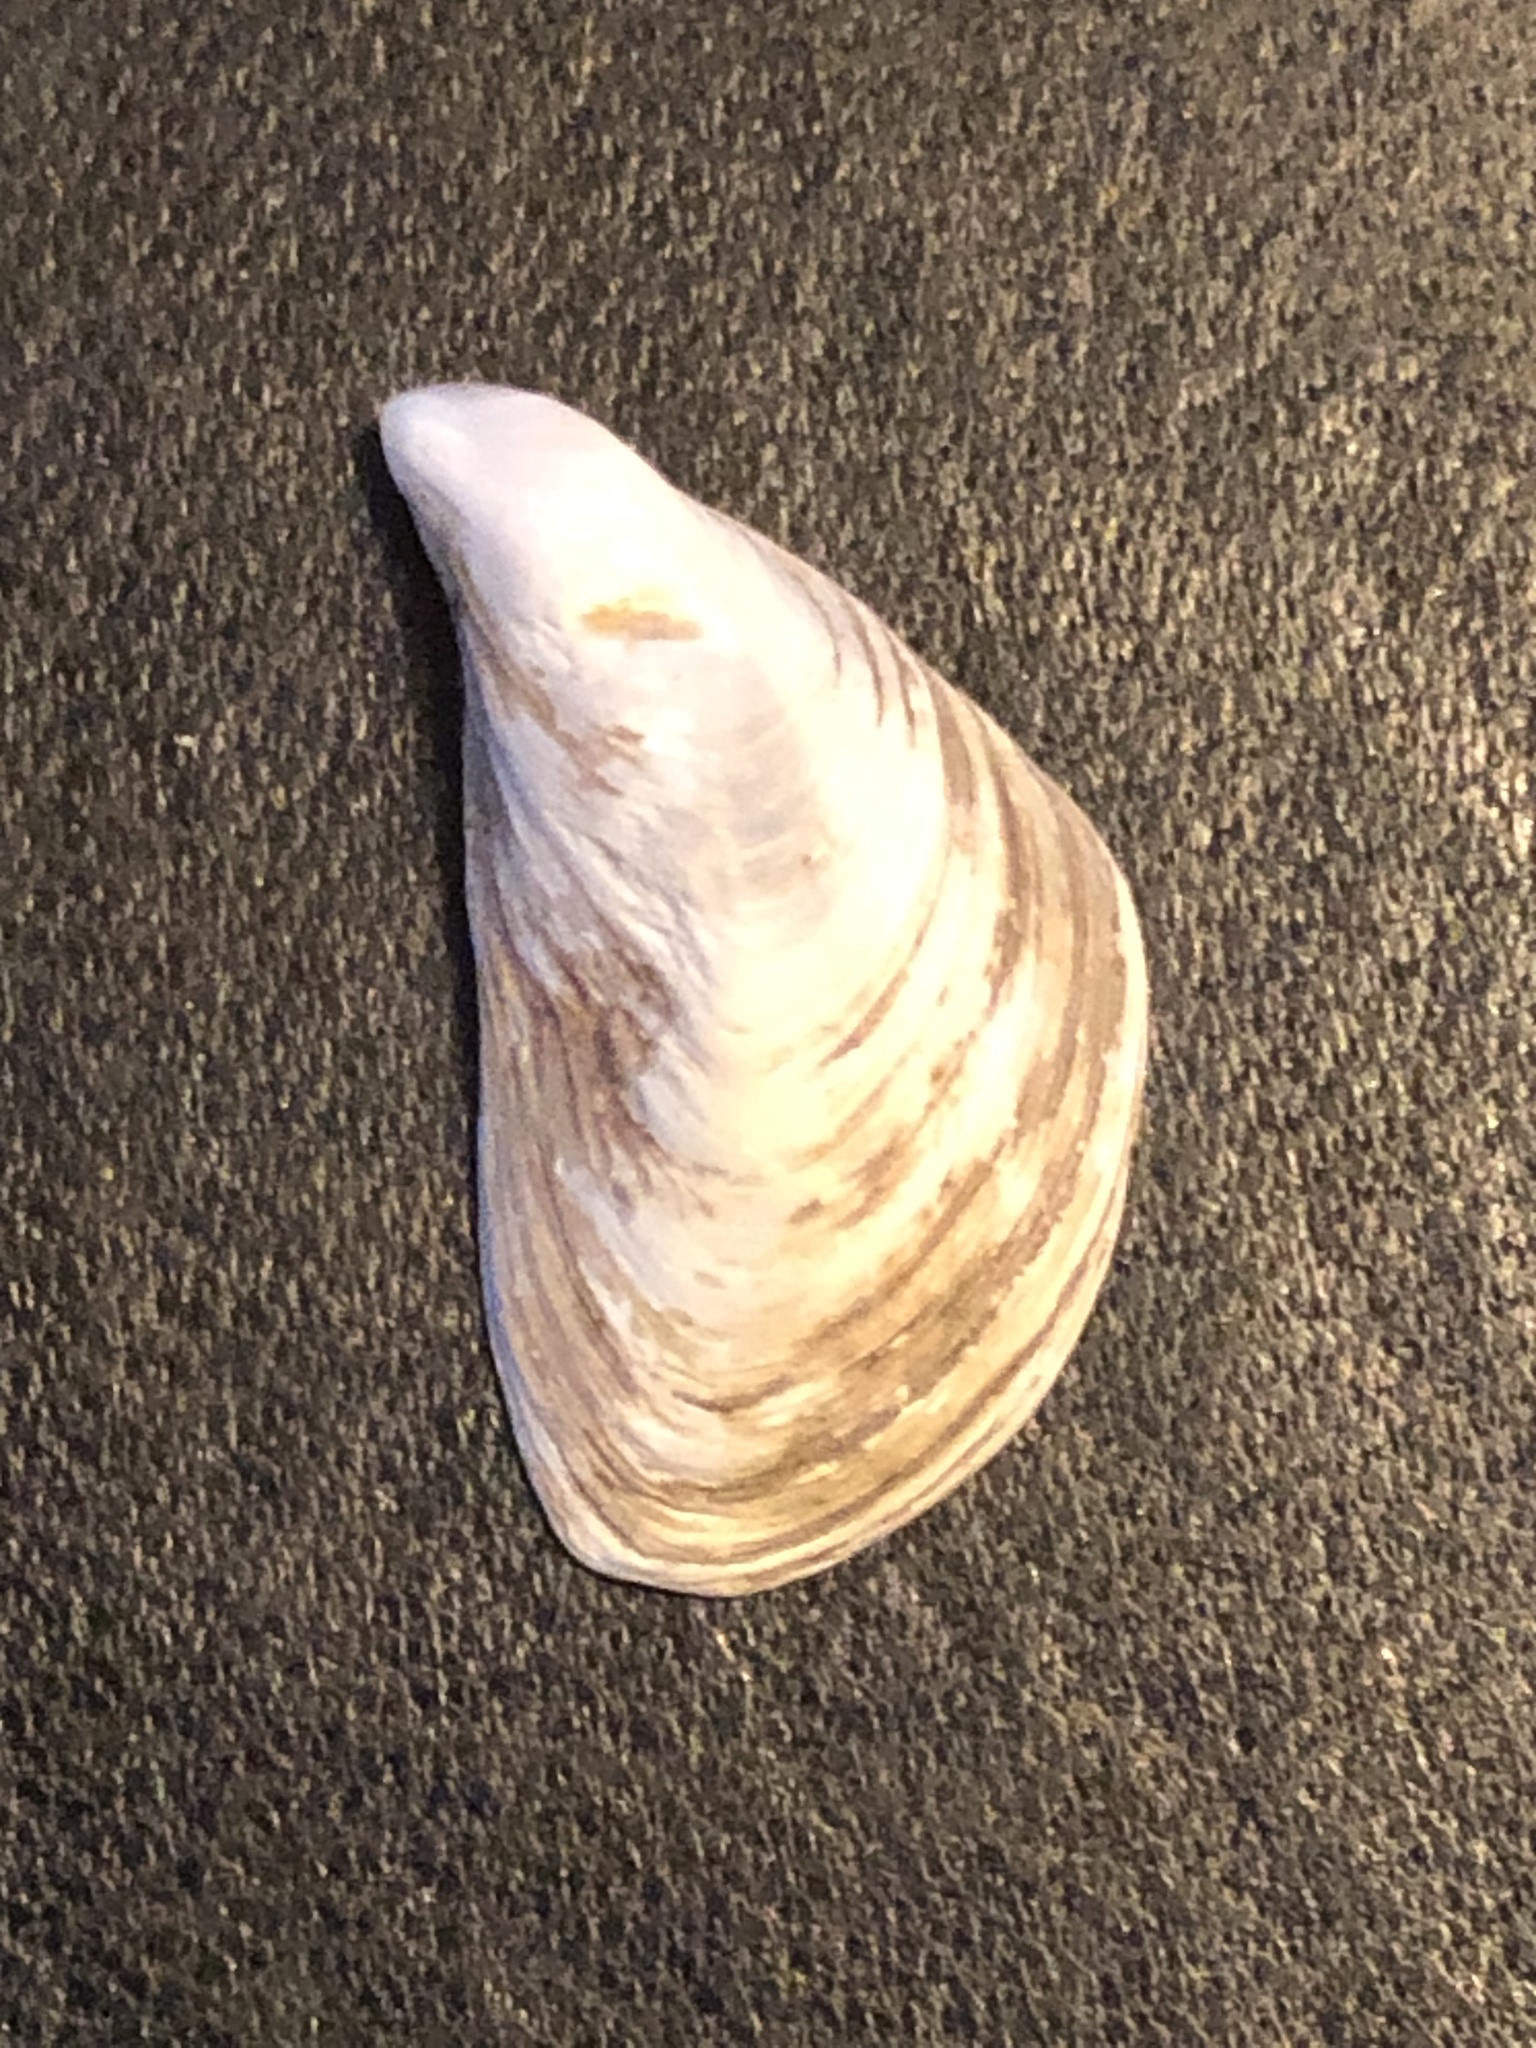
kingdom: Animalia
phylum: Mollusca
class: Bivalvia
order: Myida
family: Dreissenidae
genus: Dreissena
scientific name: Dreissena bugensis
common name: Quagga mussel
